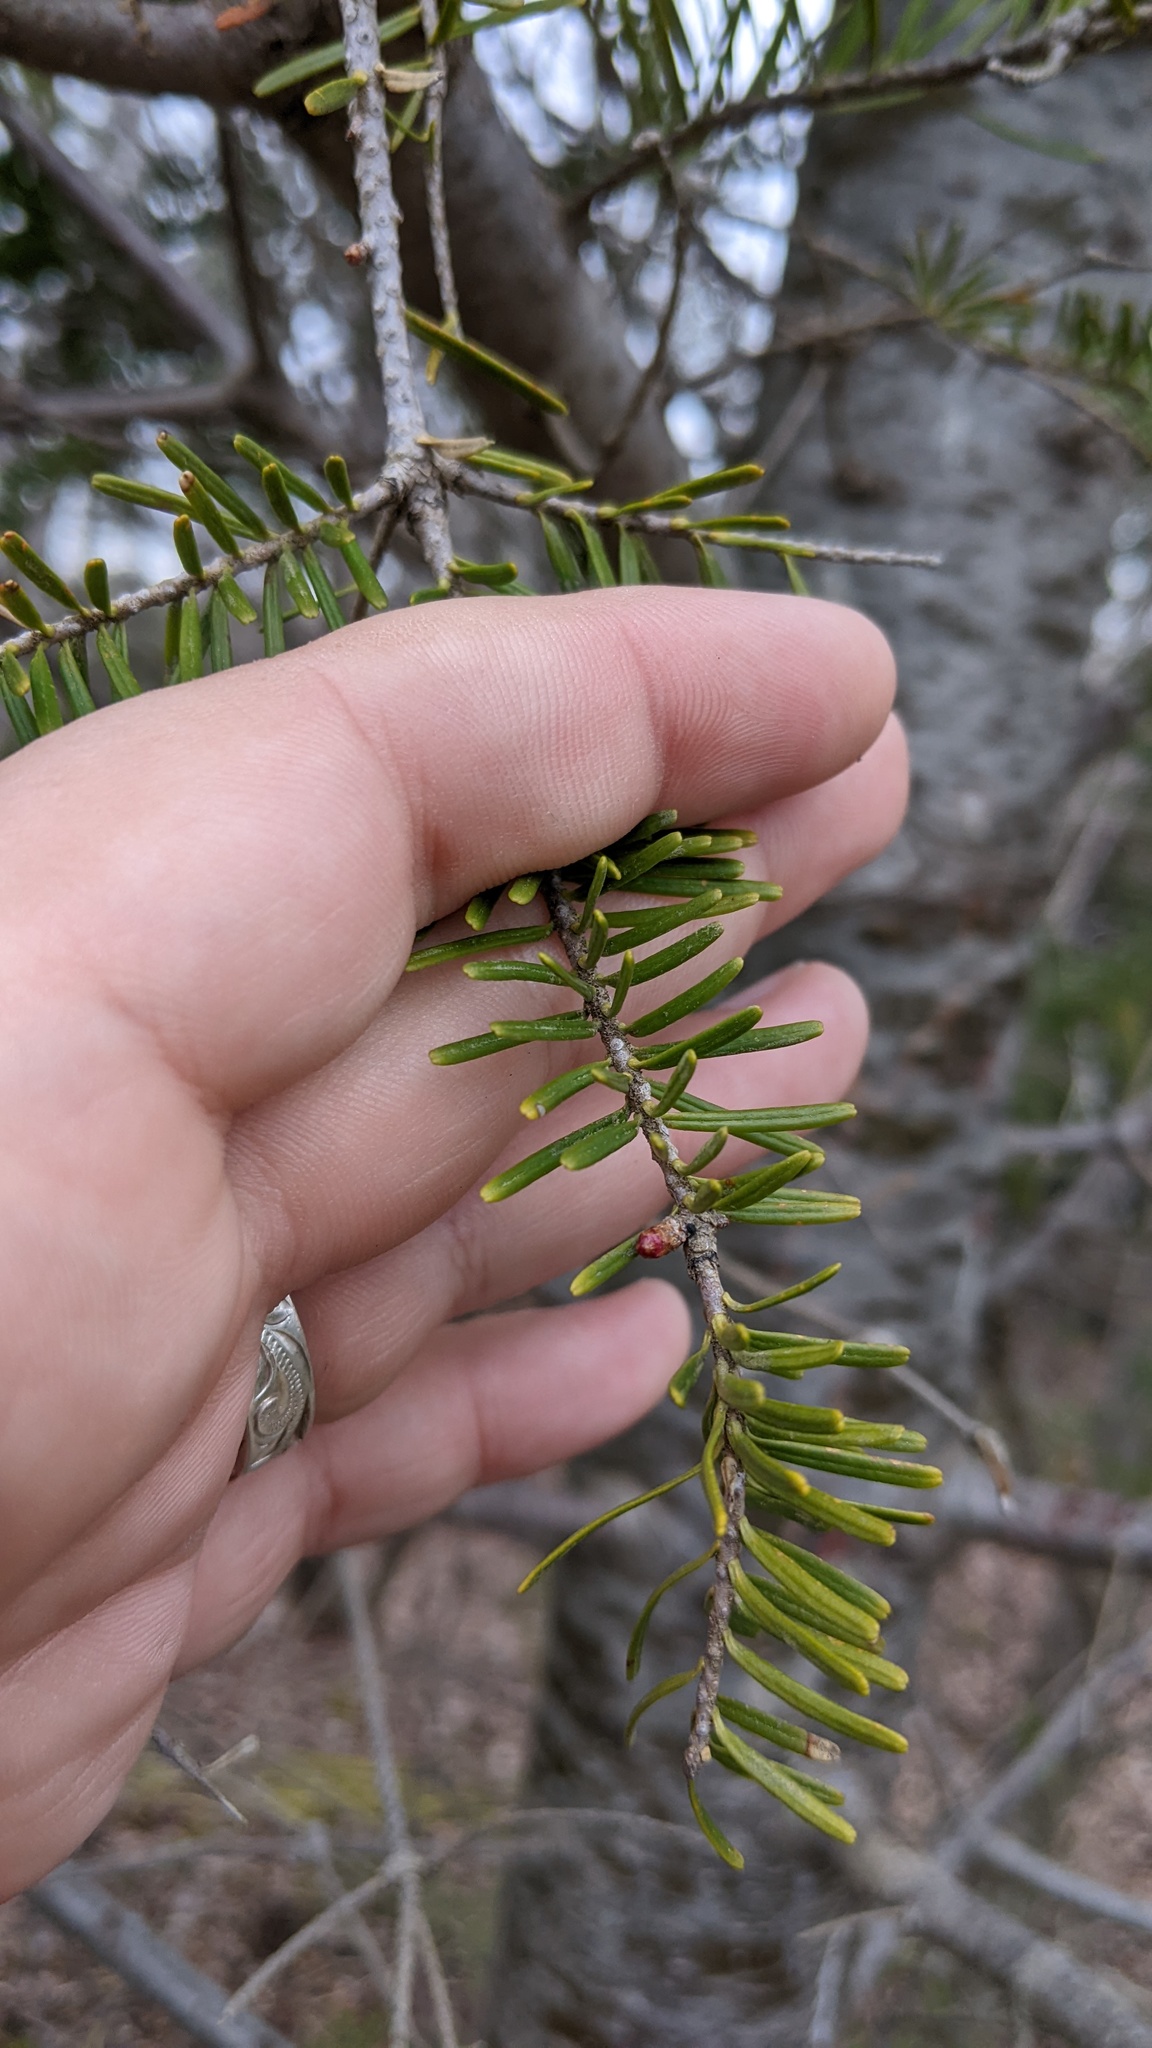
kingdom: Plantae
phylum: Tracheophyta
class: Pinopsida
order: Pinales
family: Pinaceae
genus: Abies
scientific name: Abies balsamea
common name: Balsam fir
